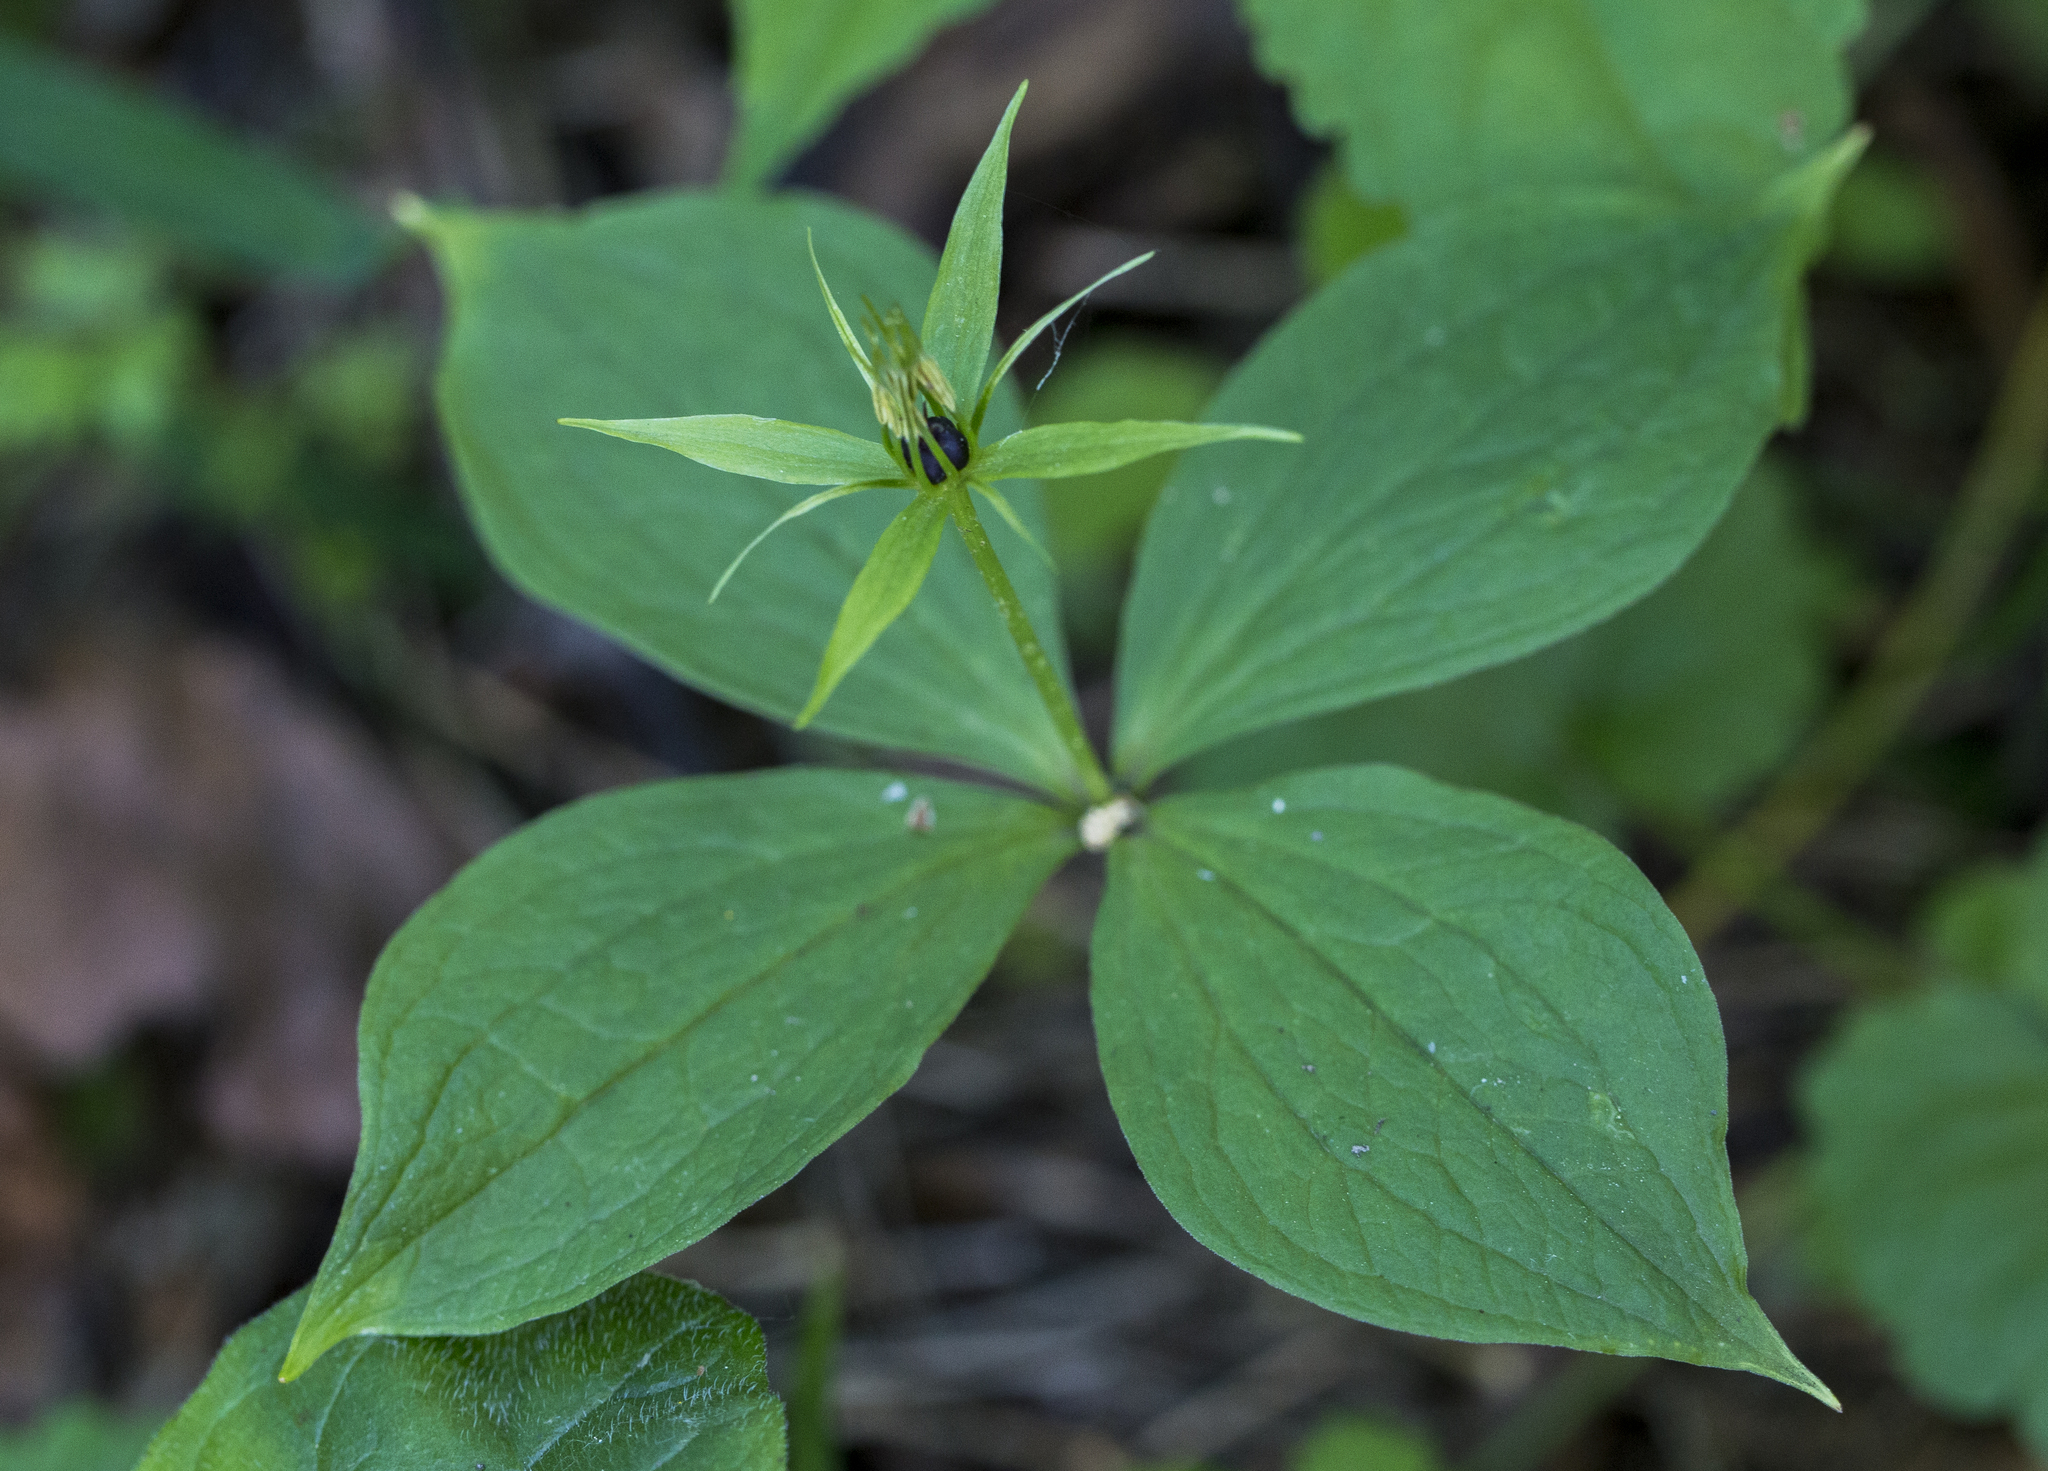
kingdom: Plantae
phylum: Tracheophyta
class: Liliopsida
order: Liliales
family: Melanthiaceae
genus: Paris
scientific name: Paris quadrifolia
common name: Herb-paris
